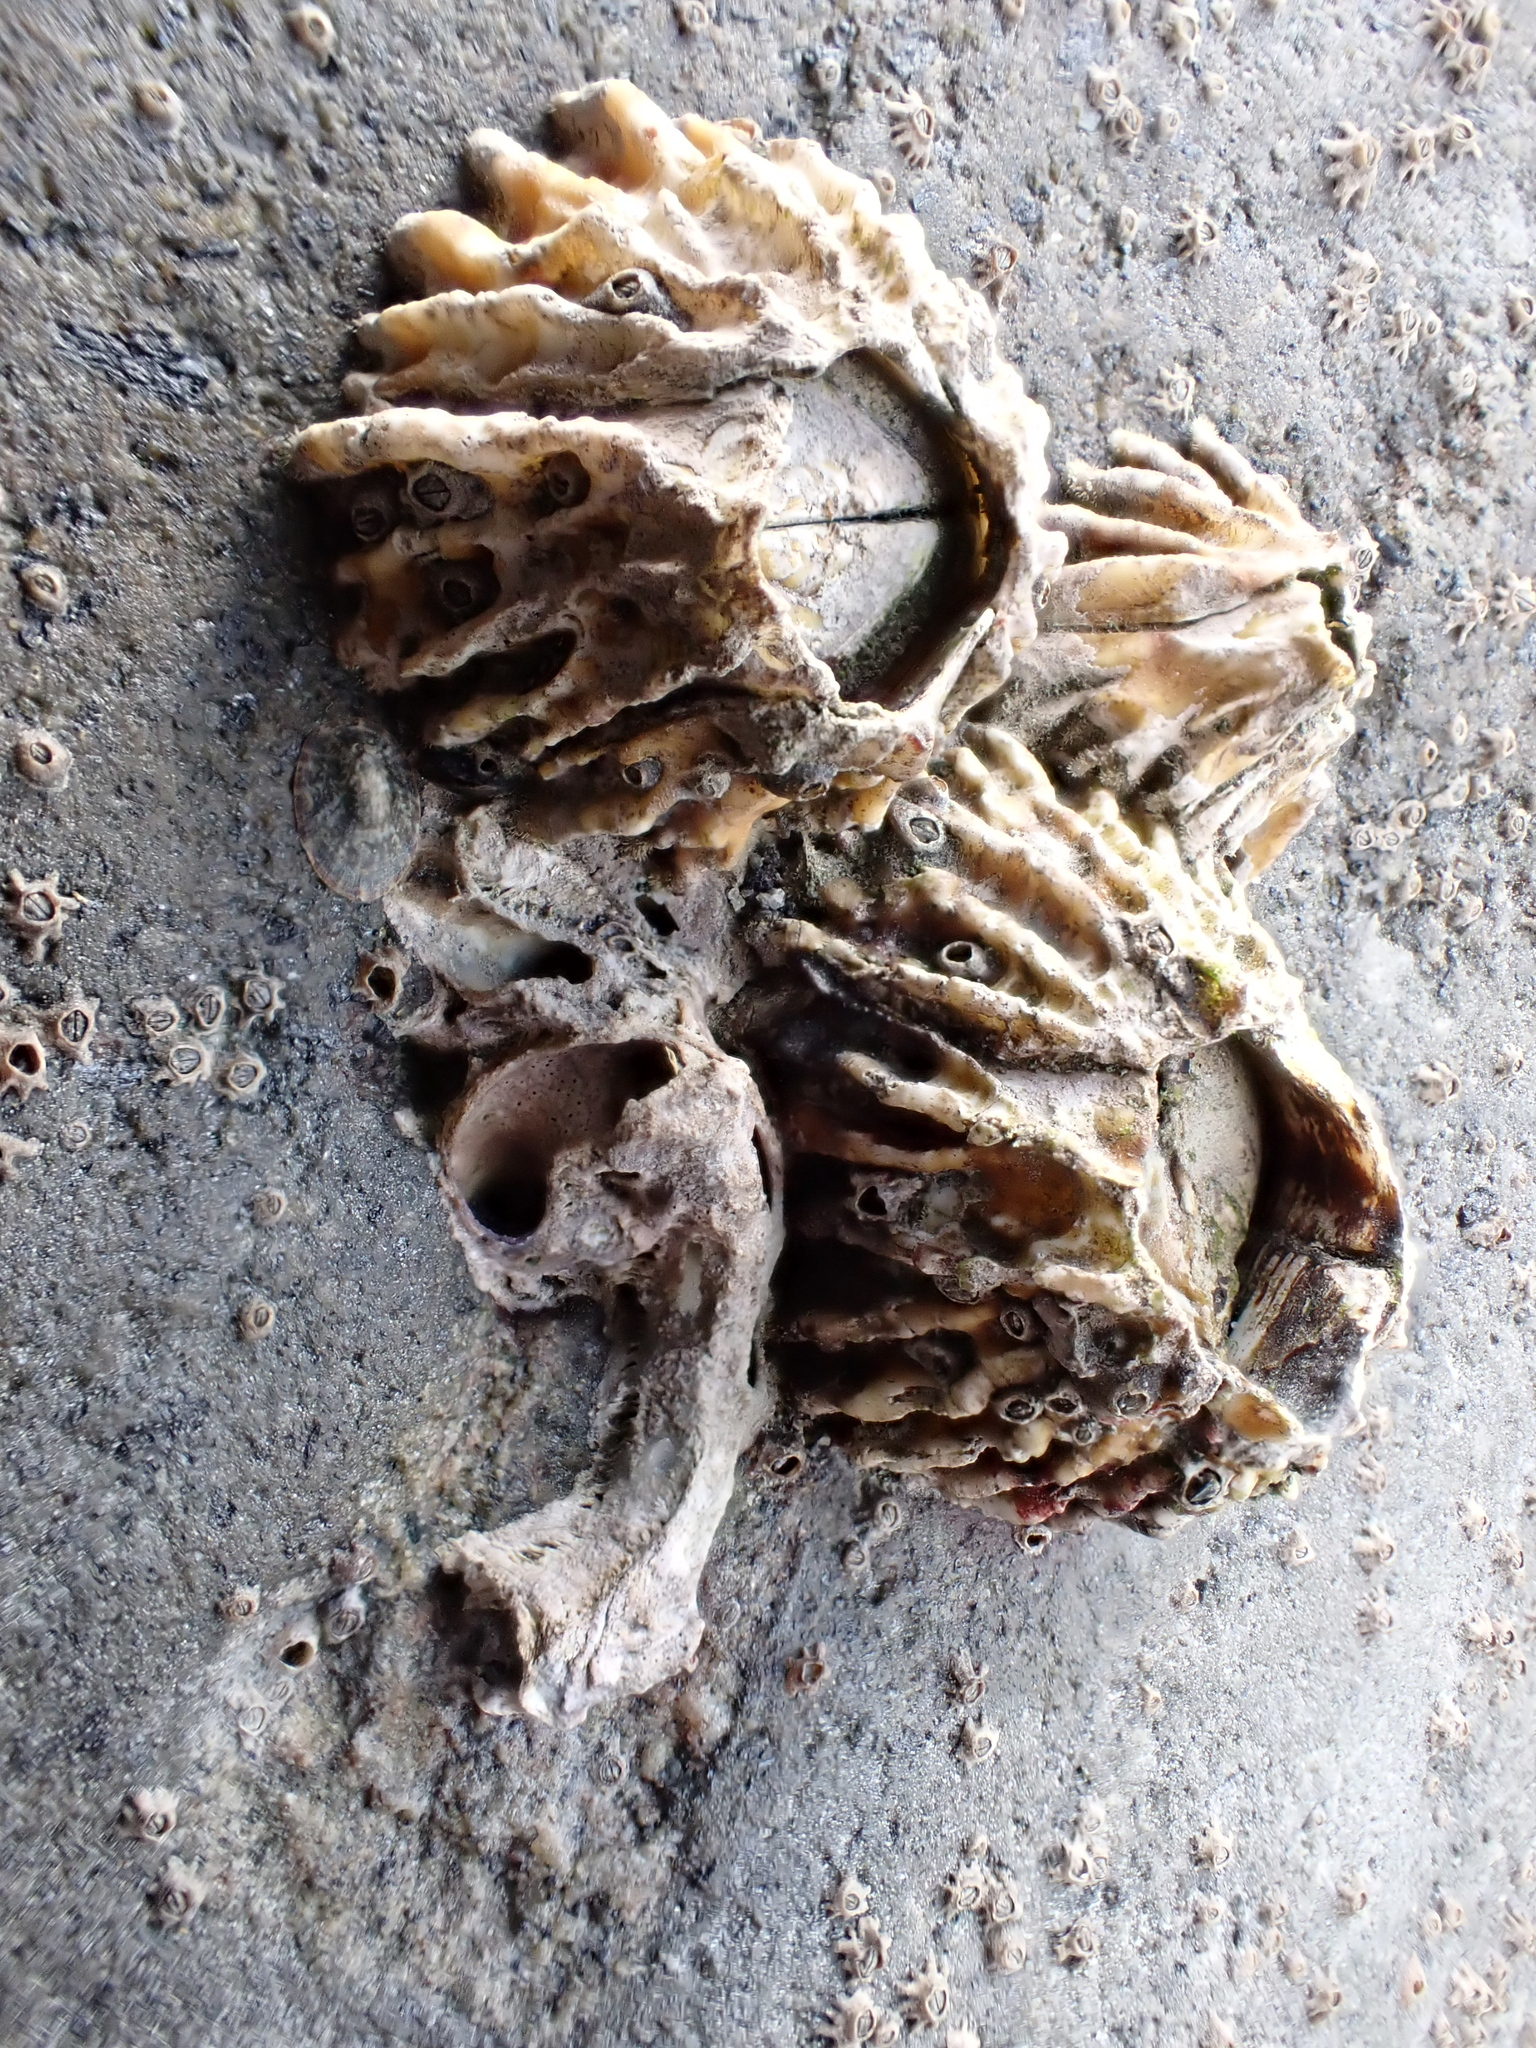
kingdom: Animalia
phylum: Arthropoda
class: Maxillopoda
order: Sessilia
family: Tetraclitidae
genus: Epopella
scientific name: Epopella plicata
